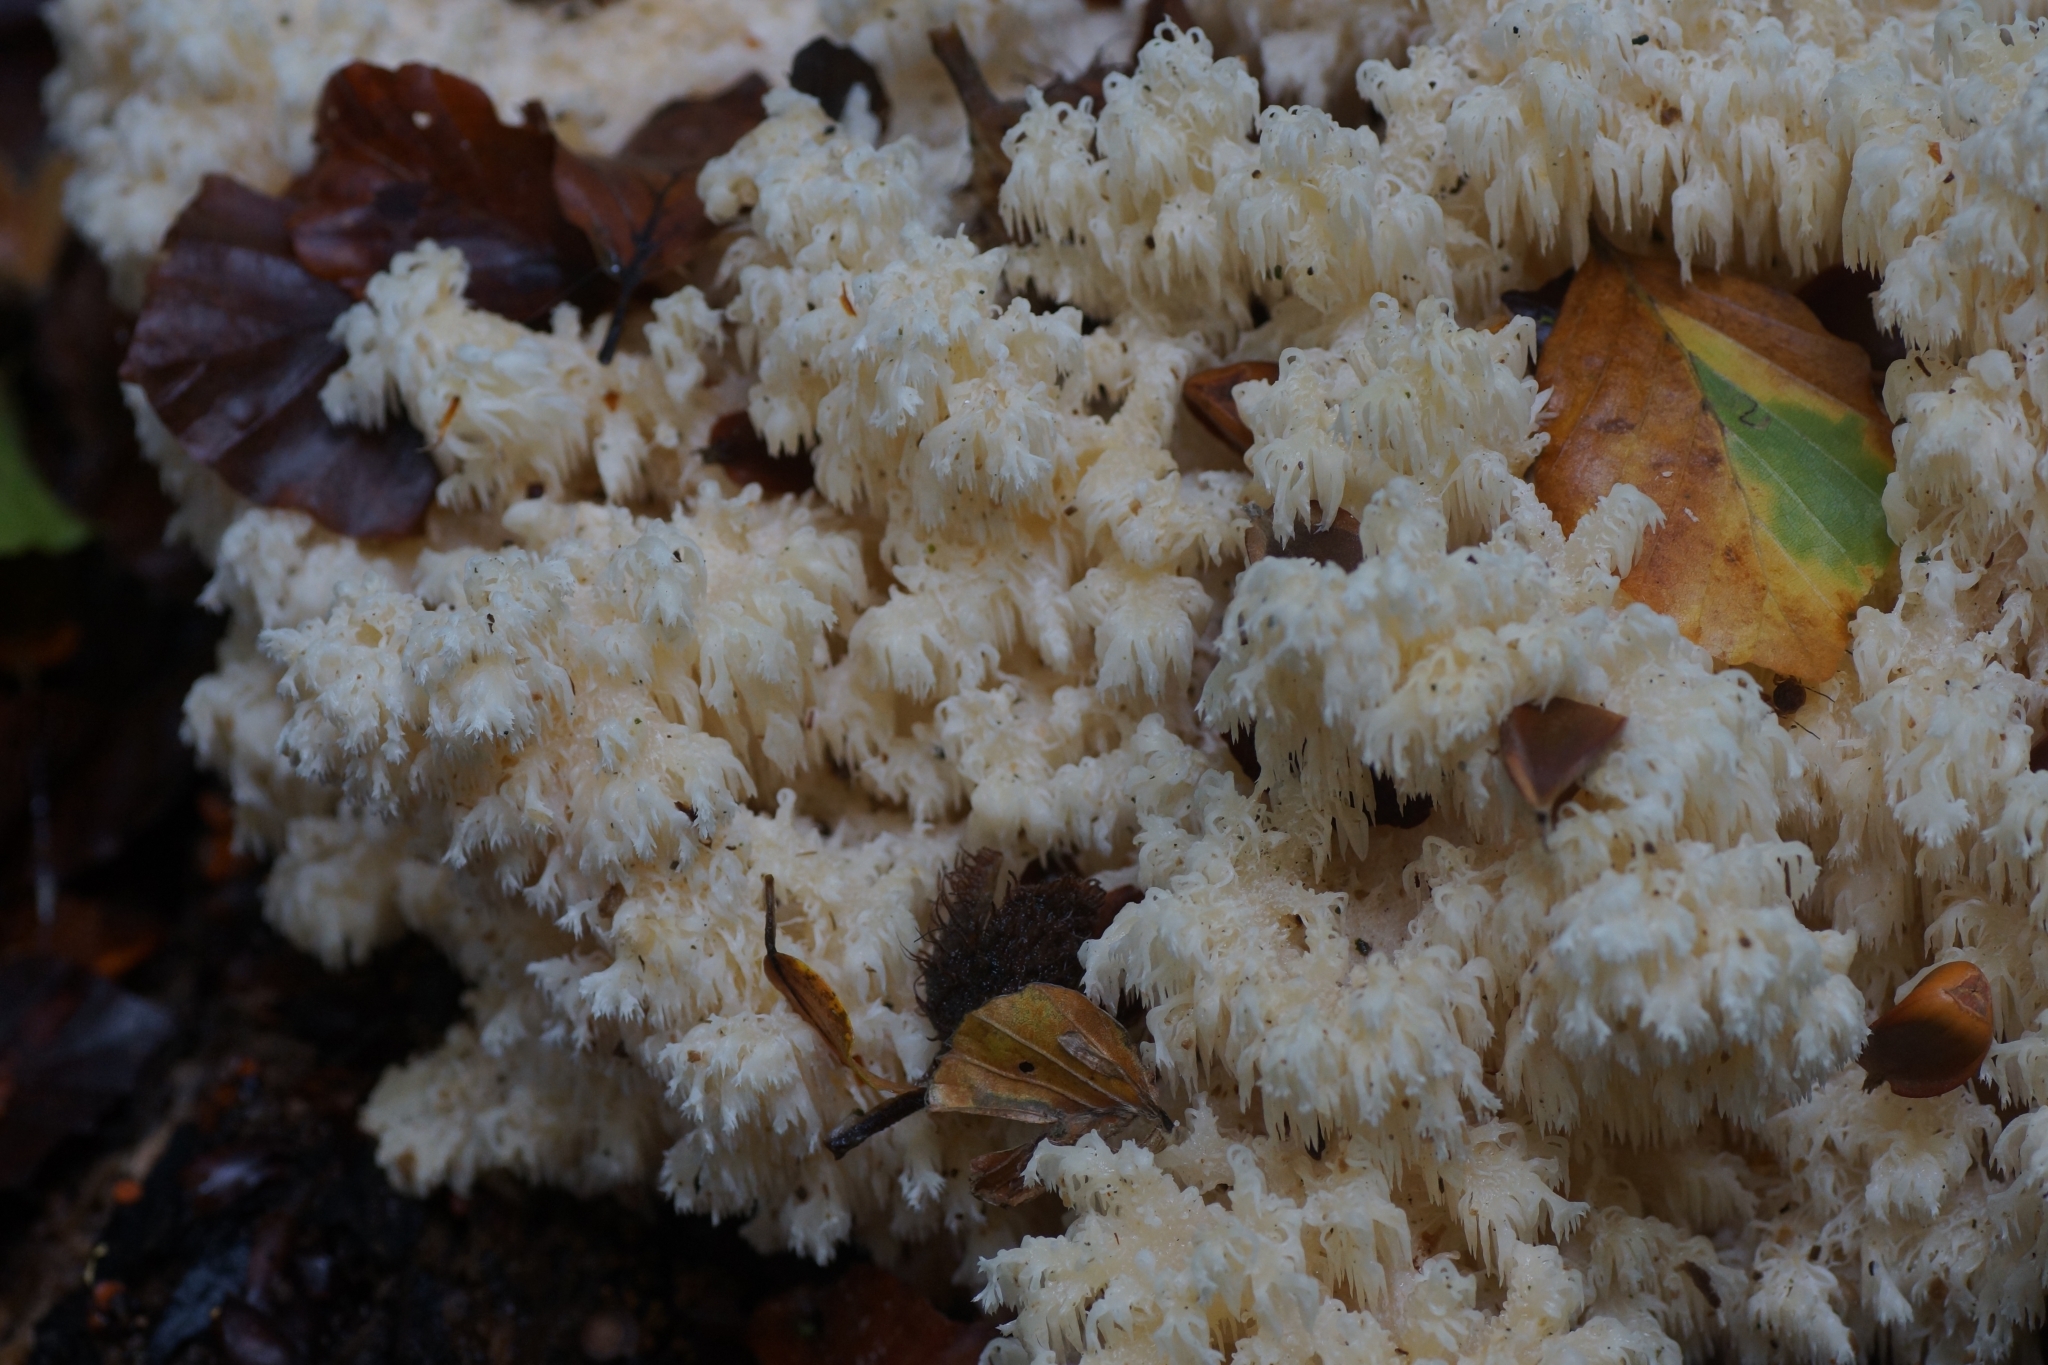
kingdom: Fungi
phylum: Basidiomycota
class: Agaricomycetes
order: Russulales
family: Hericiaceae
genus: Hericium
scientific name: Hericium coralloides
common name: Coral tooth
